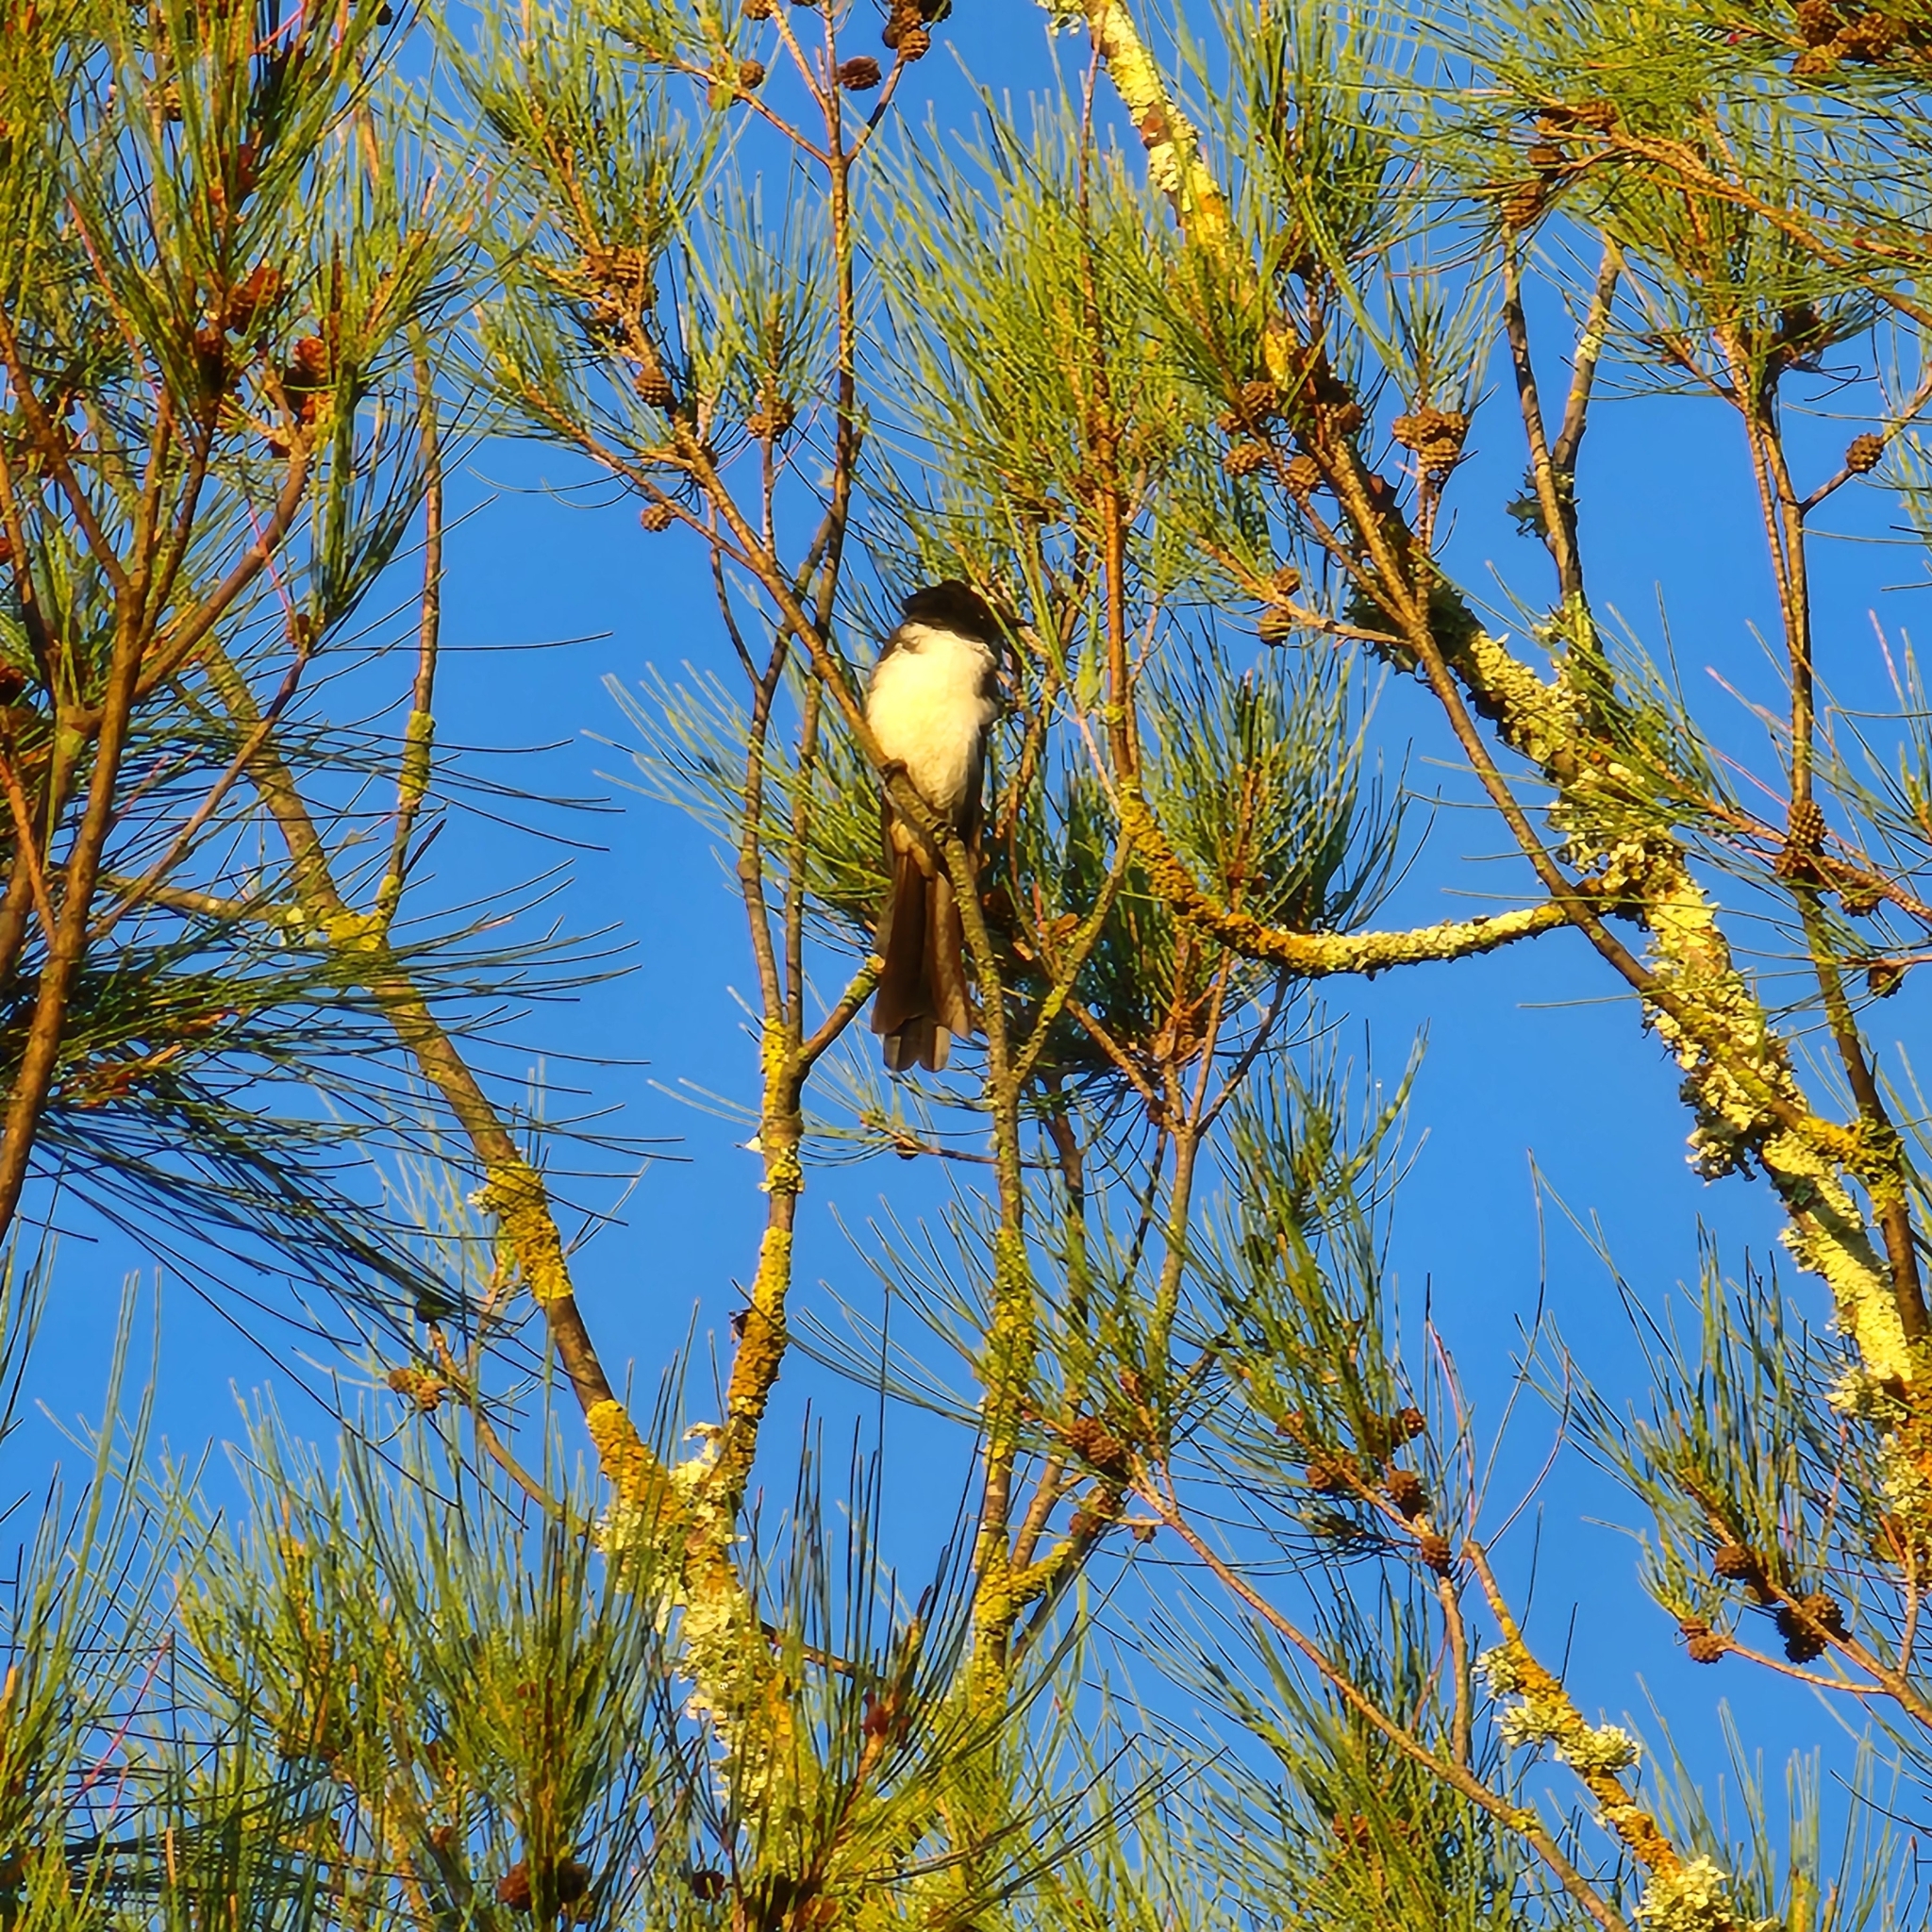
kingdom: Animalia
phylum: Chordata
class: Aves
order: Passeriformes
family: Rhipiduridae
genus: Rhipidura
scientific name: Rhipidura leucophrys
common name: Willie wagtail
